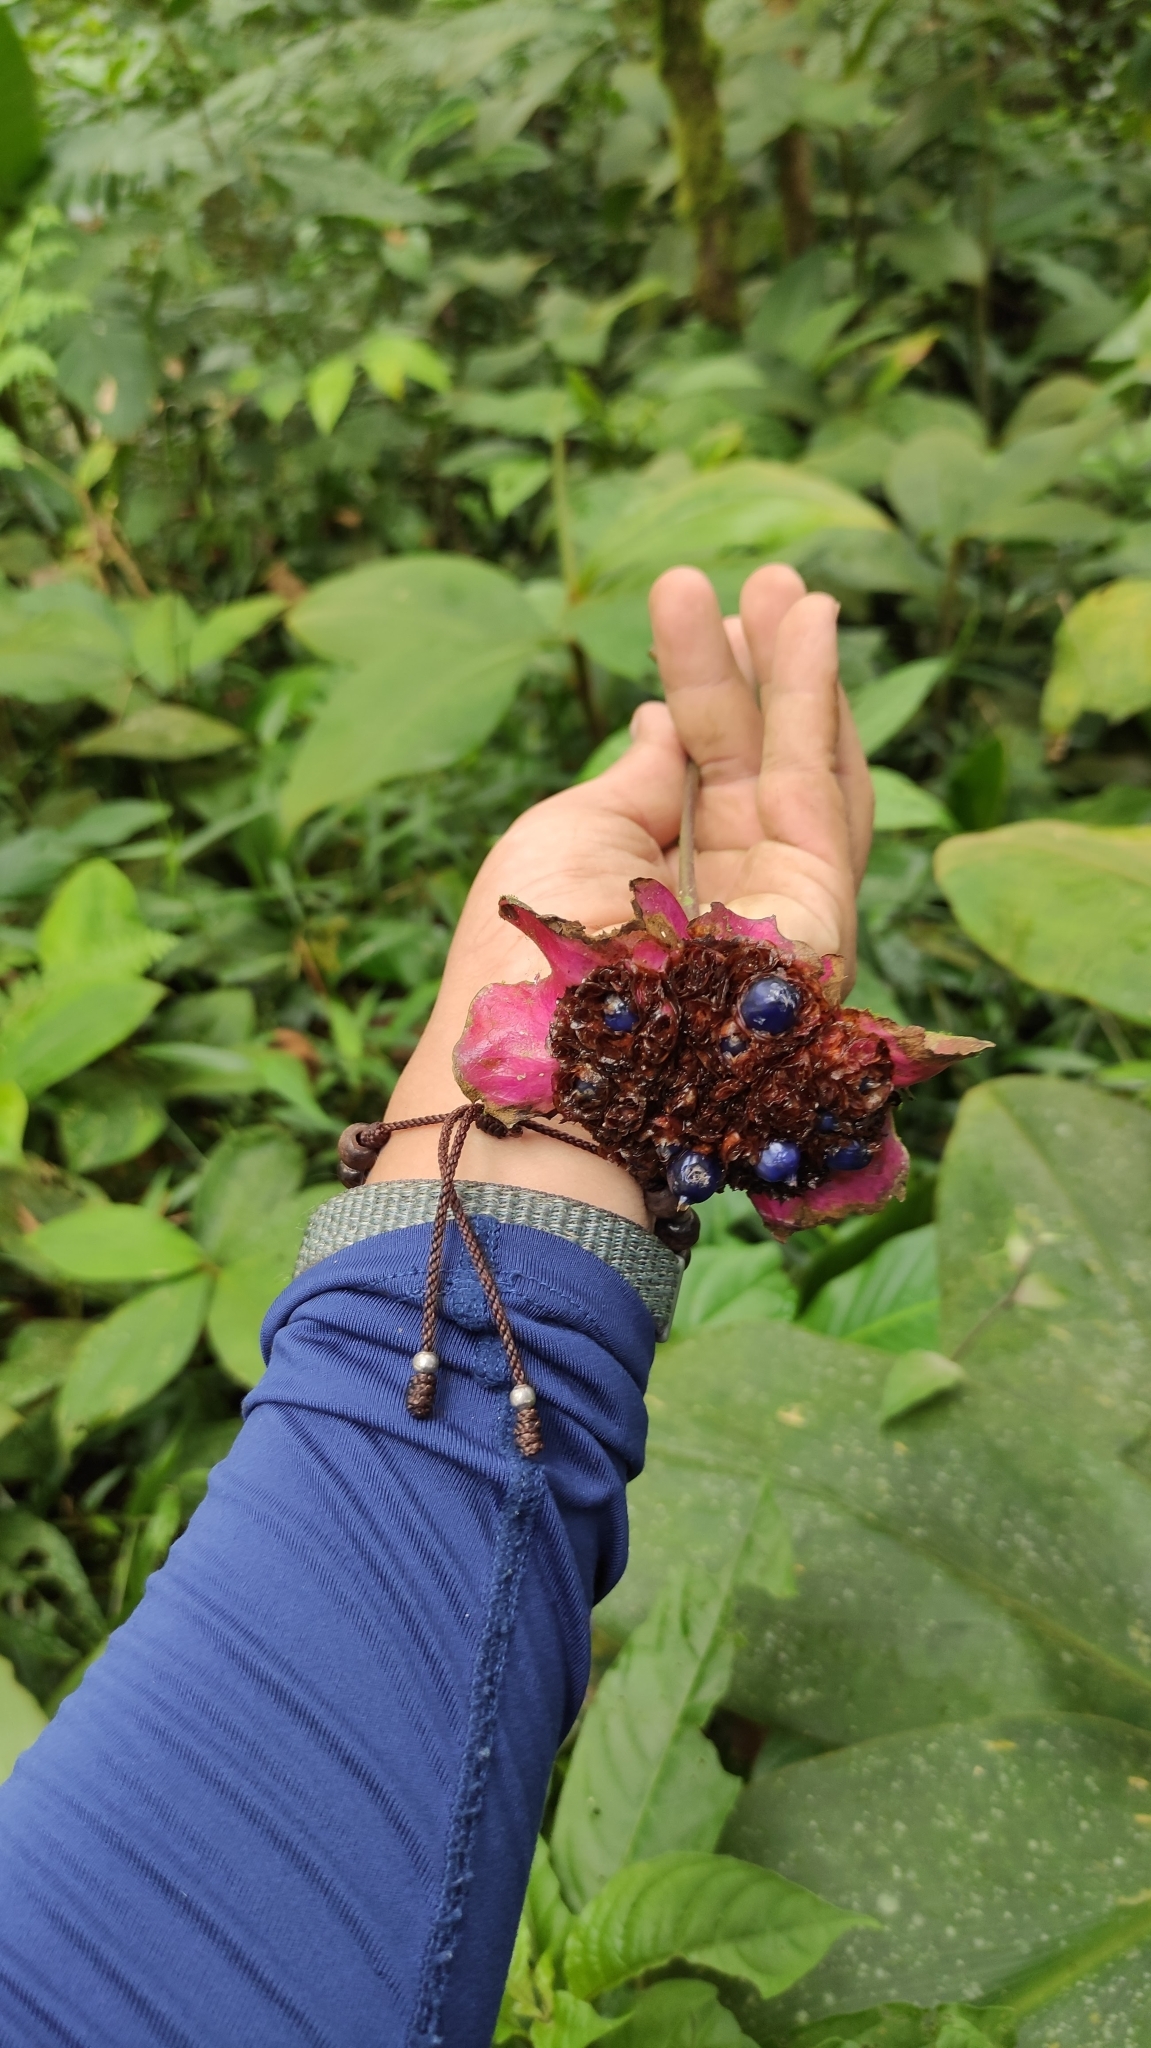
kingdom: Plantae
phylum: Tracheophyta
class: Magnoliopsida
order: Gentianales
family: Rubiaceae
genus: Palicourea
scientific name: Palicourea correae
